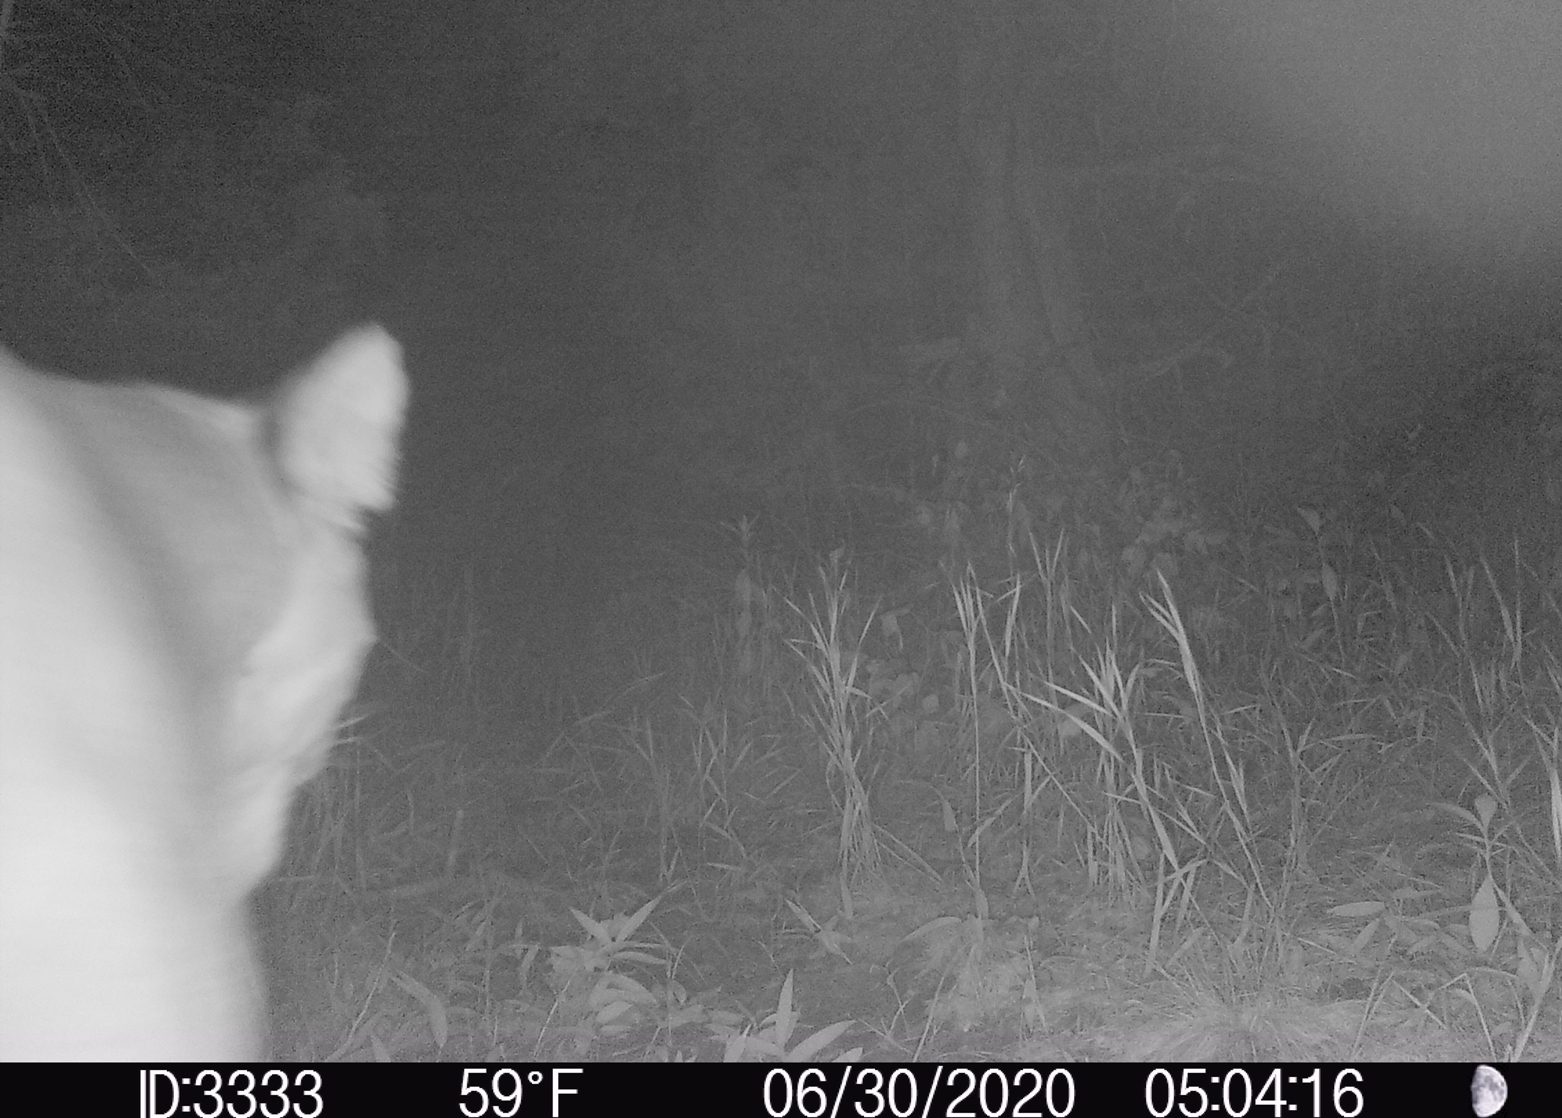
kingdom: Animalia
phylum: Chordata
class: Mammalia
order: Carnivora
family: Felidae
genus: Puma
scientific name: Puma concolor
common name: Puma
